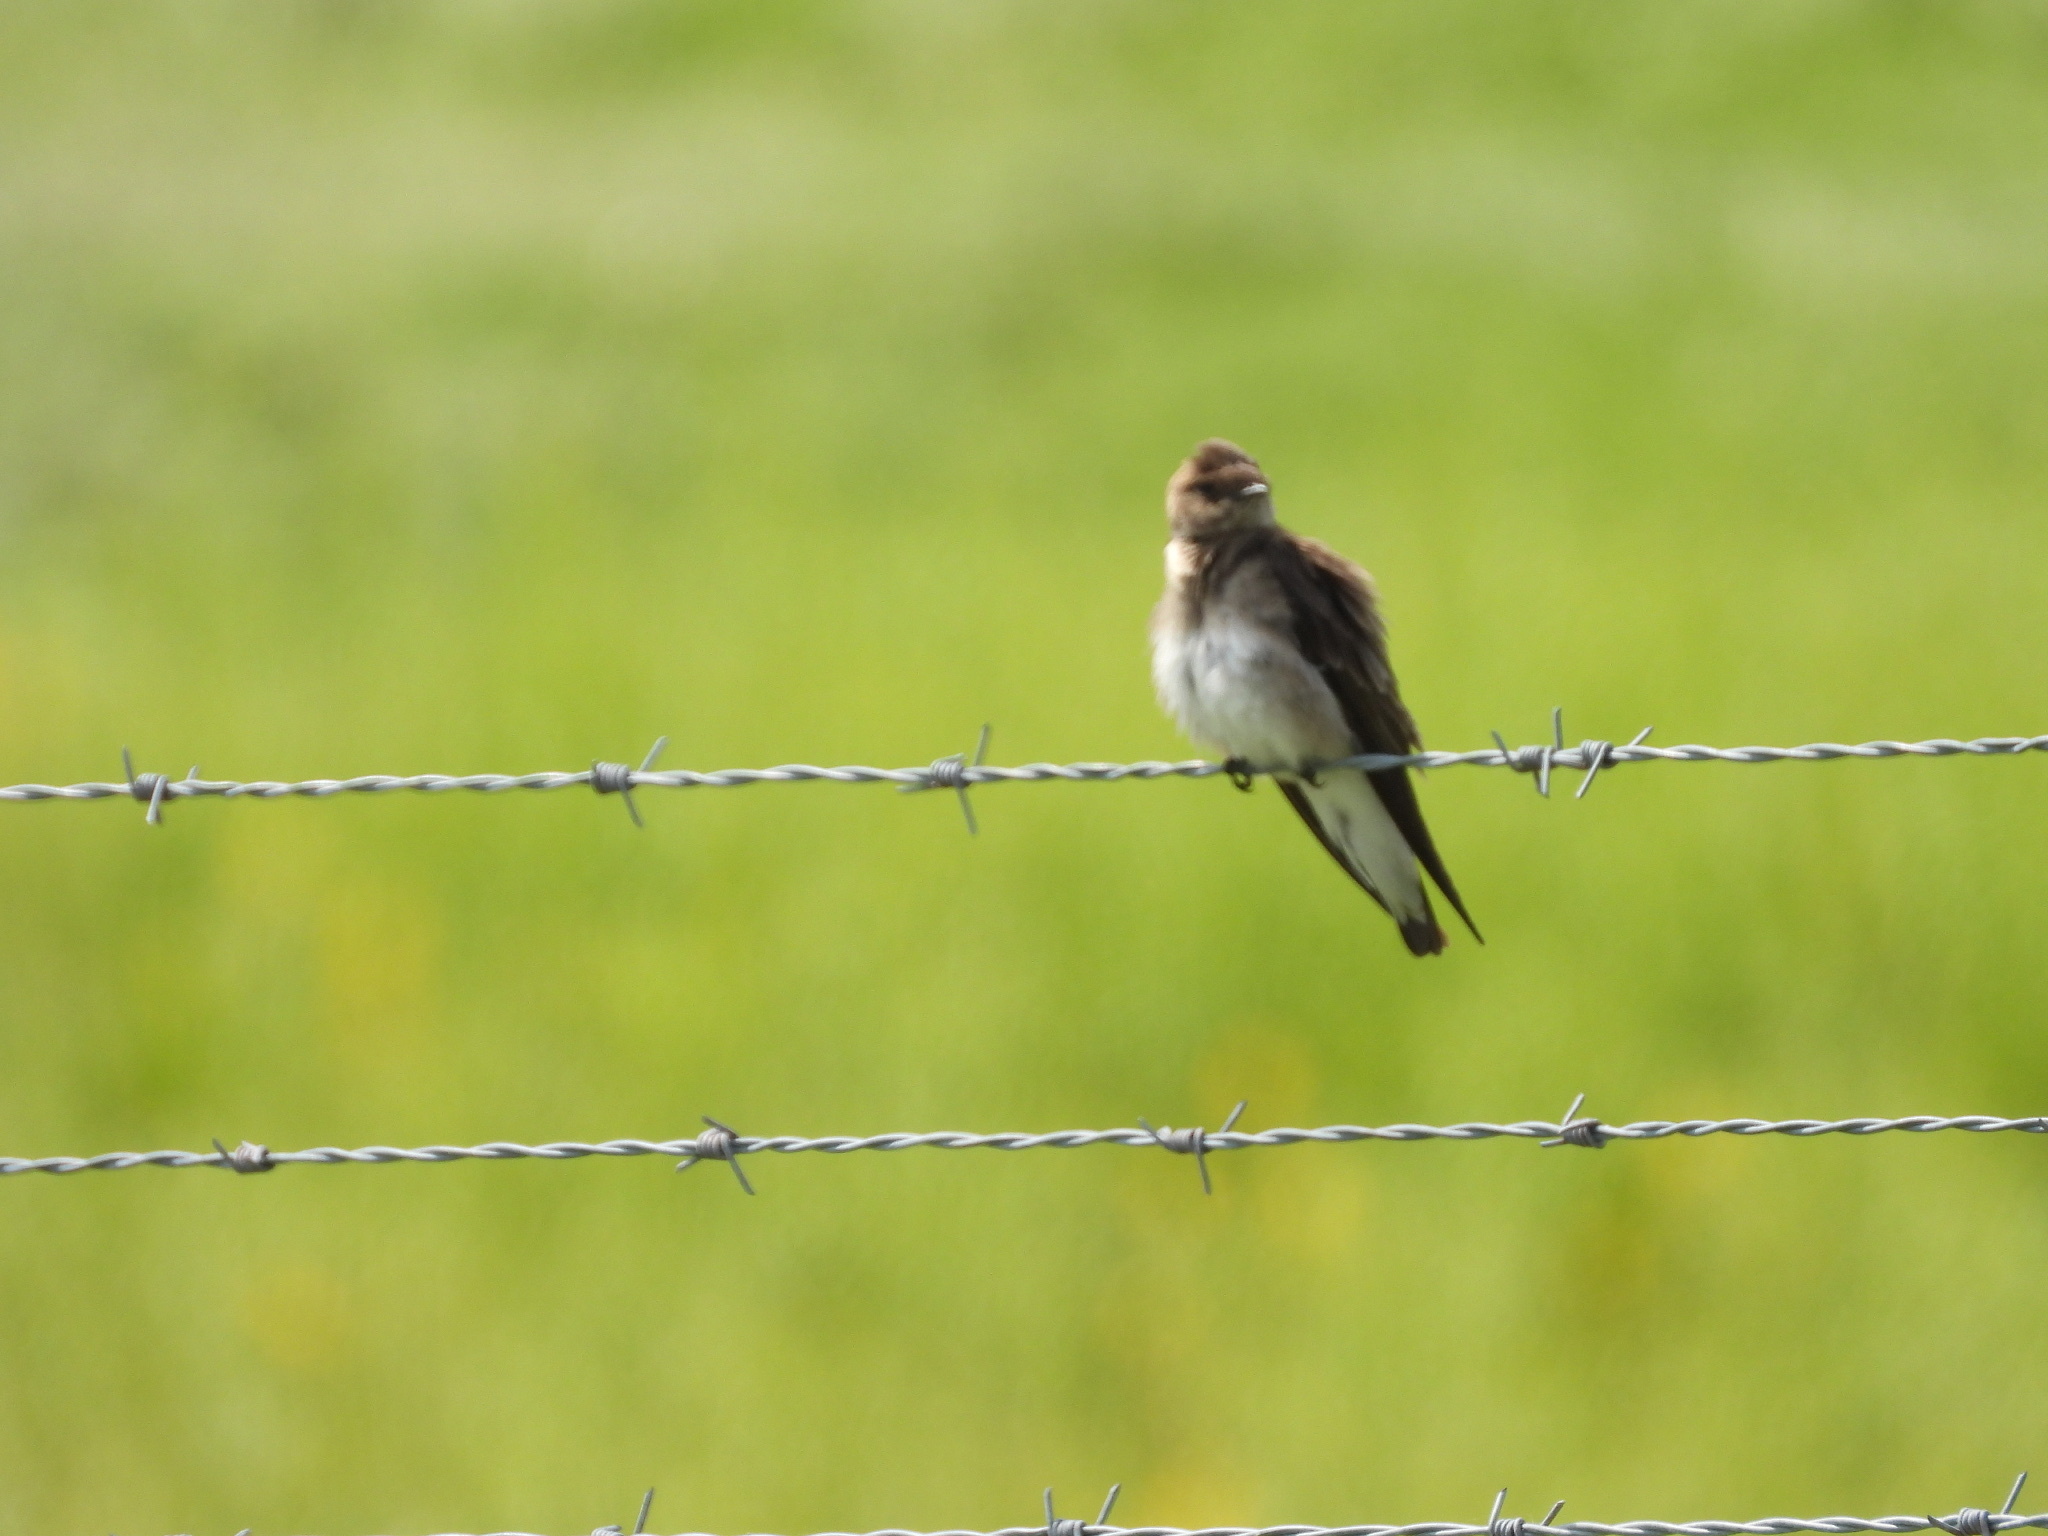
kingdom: Animalia
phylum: Chordata
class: Aves
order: Passeriformes
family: Hirundinidae
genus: Stelgidopteryx
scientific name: Stelgidopteryx serripennis
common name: Northern rough-winged swallow
